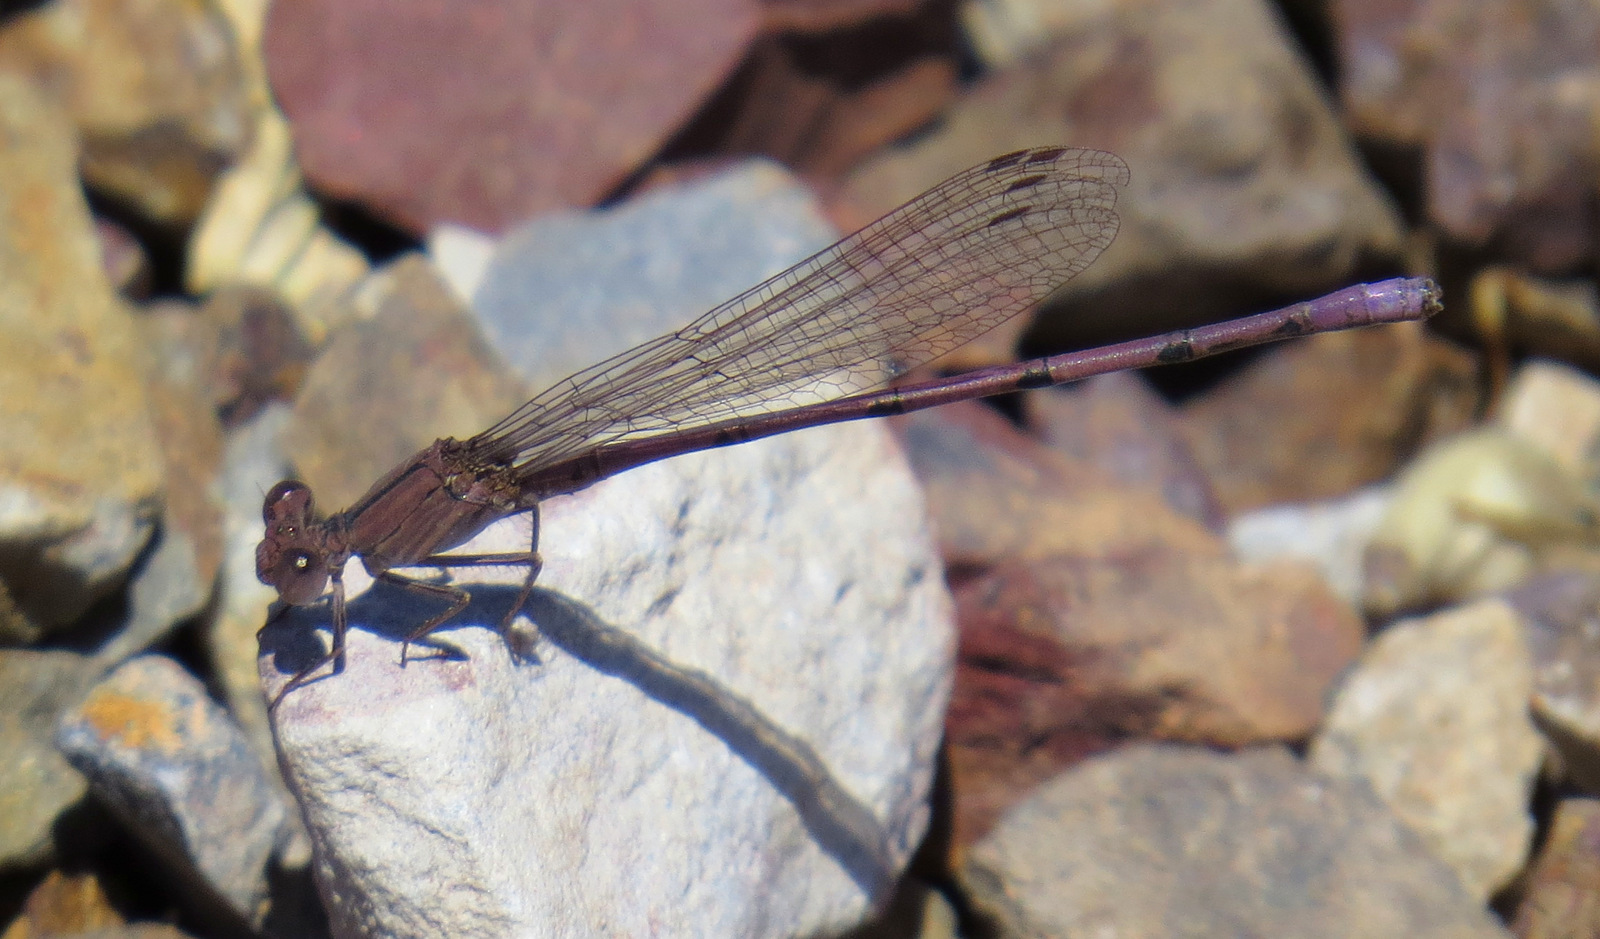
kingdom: Animalia
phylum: Arthropoda
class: Insecta
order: Odonata
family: Coenagrionidae
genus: Argia
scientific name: Argia pallens
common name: Amethyst dancer
